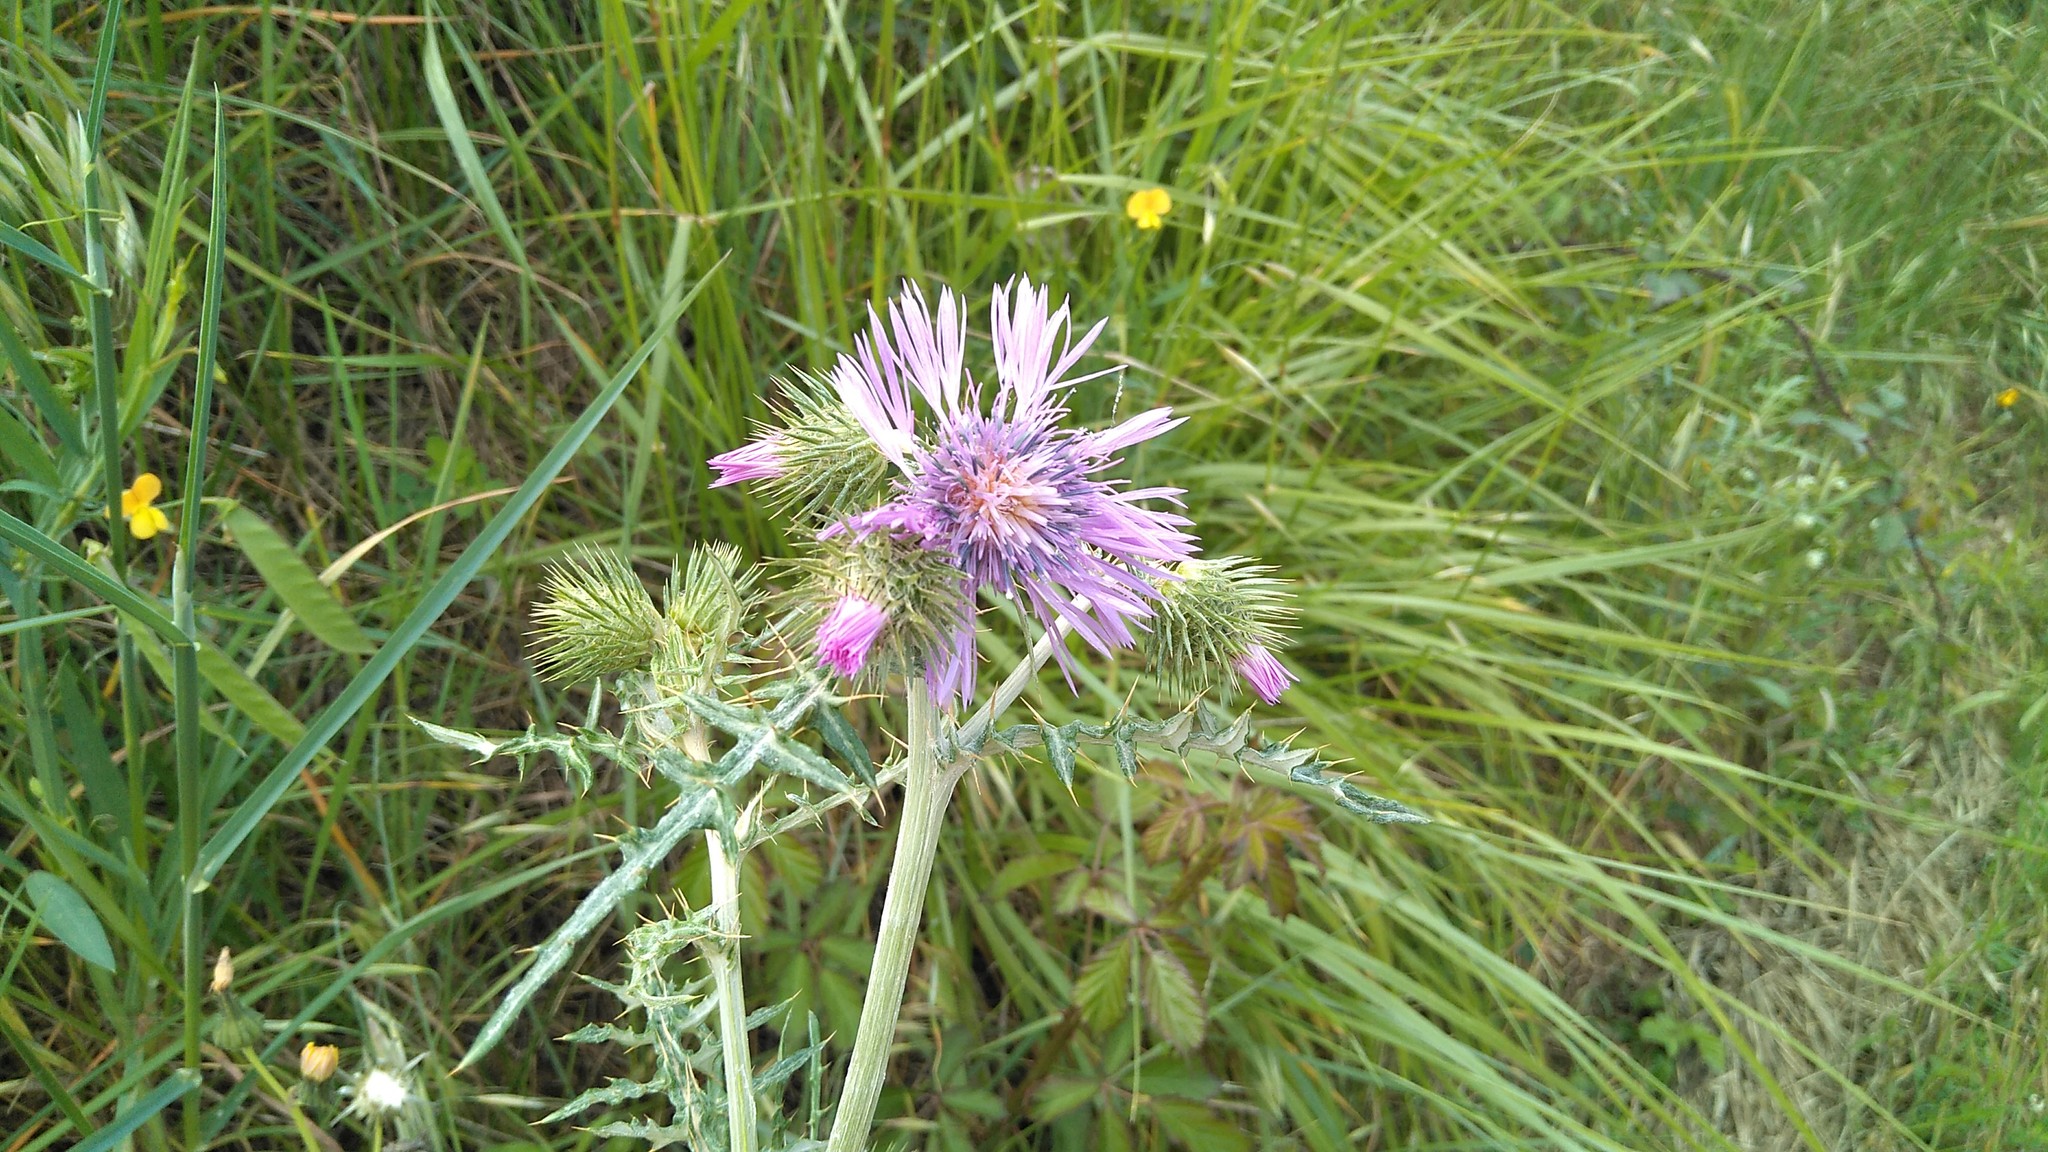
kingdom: Plantae
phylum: Tracheophyta
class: Magnoliopsida
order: Asterales
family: Asteraceae
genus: Galactites
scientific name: Galactites tomentosa
